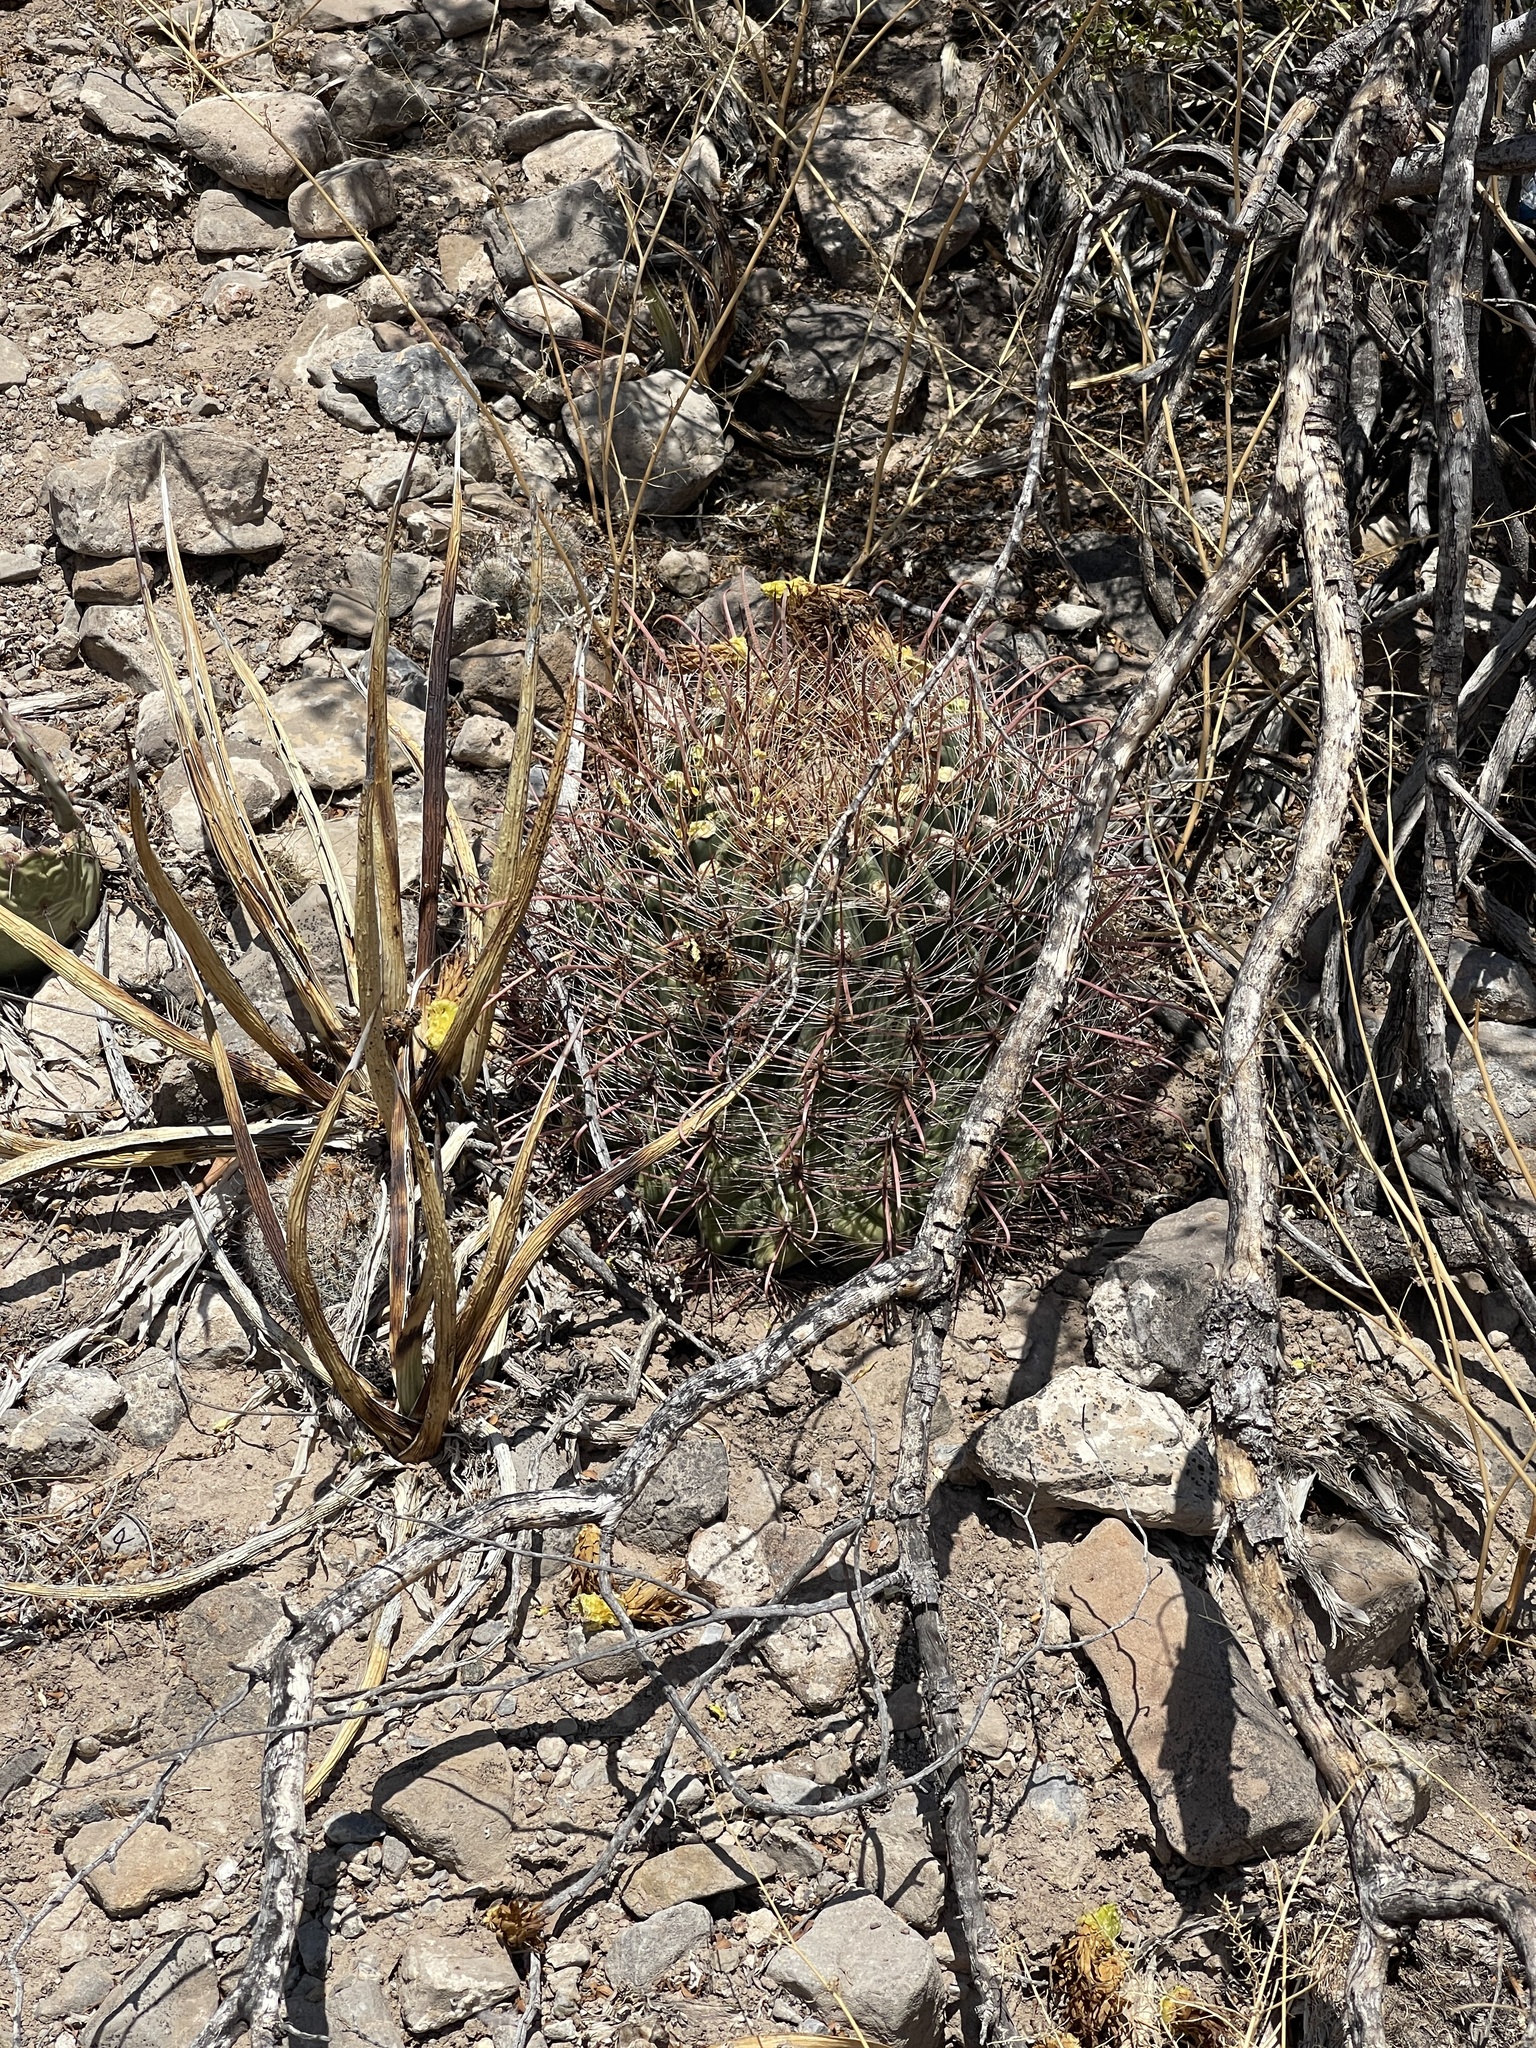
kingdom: Plantae
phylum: Tracheophyta
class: Magnoliopsida
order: Caryophyllales
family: Cactaceae
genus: Ferocactus
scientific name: Ferocactus wislizeni
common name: Candy barrel cactus
